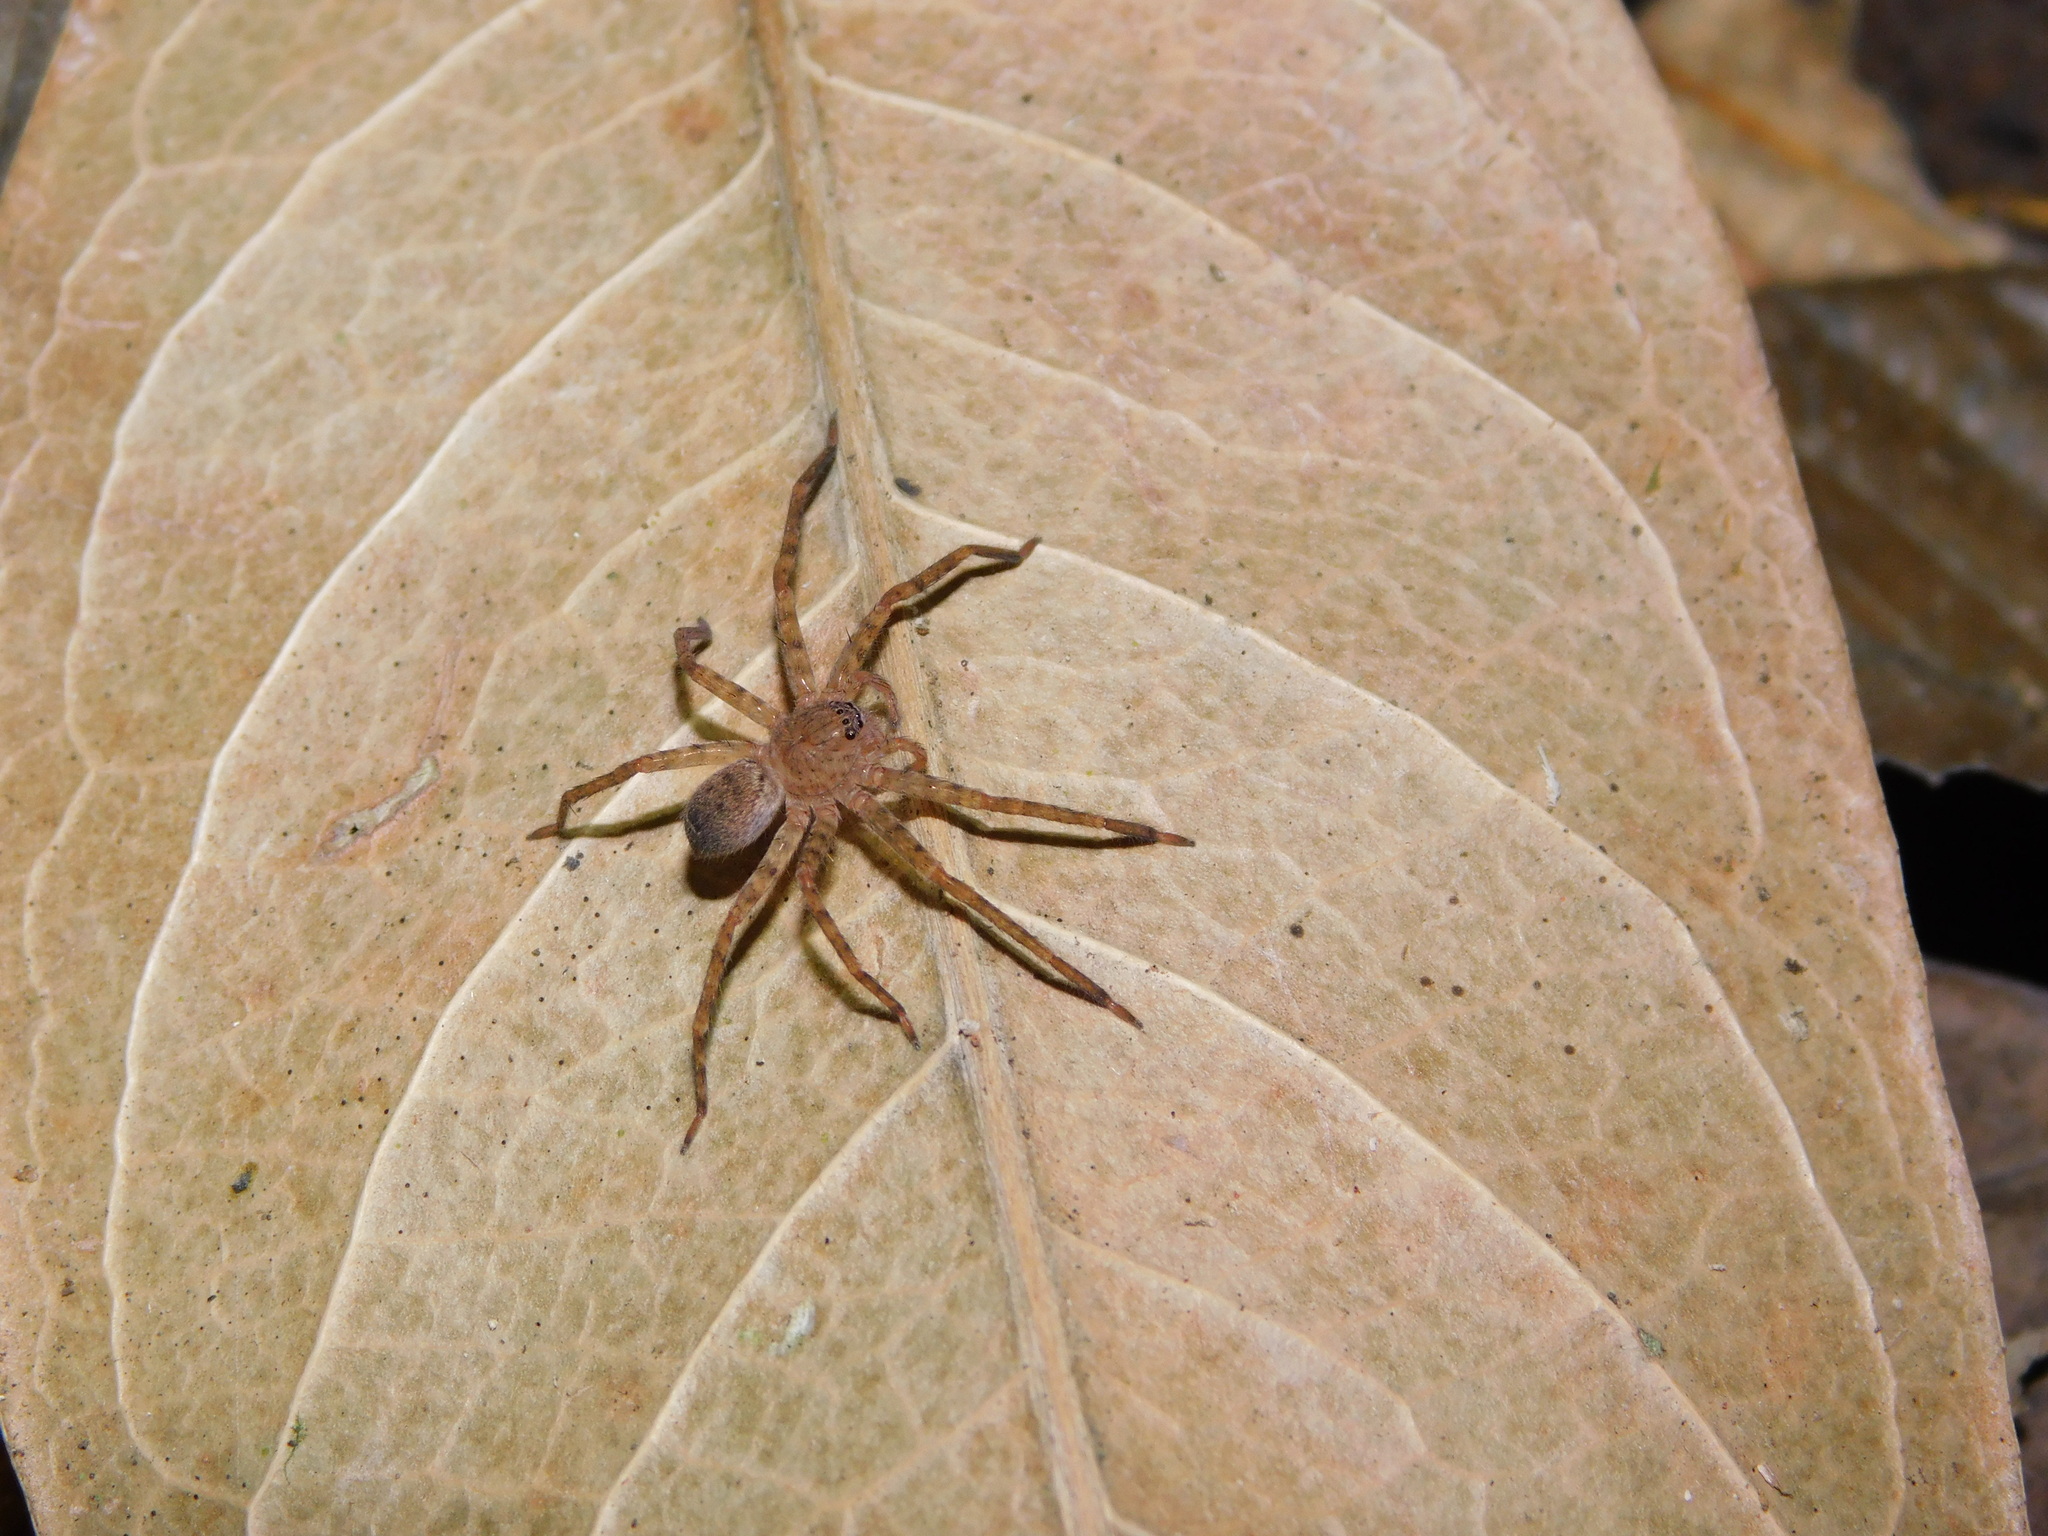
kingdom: Animalia
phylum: Arthropoda
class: Arachnida
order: Araneae
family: Sparassidae
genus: Heteropoda
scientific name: Heteropoda homstu
